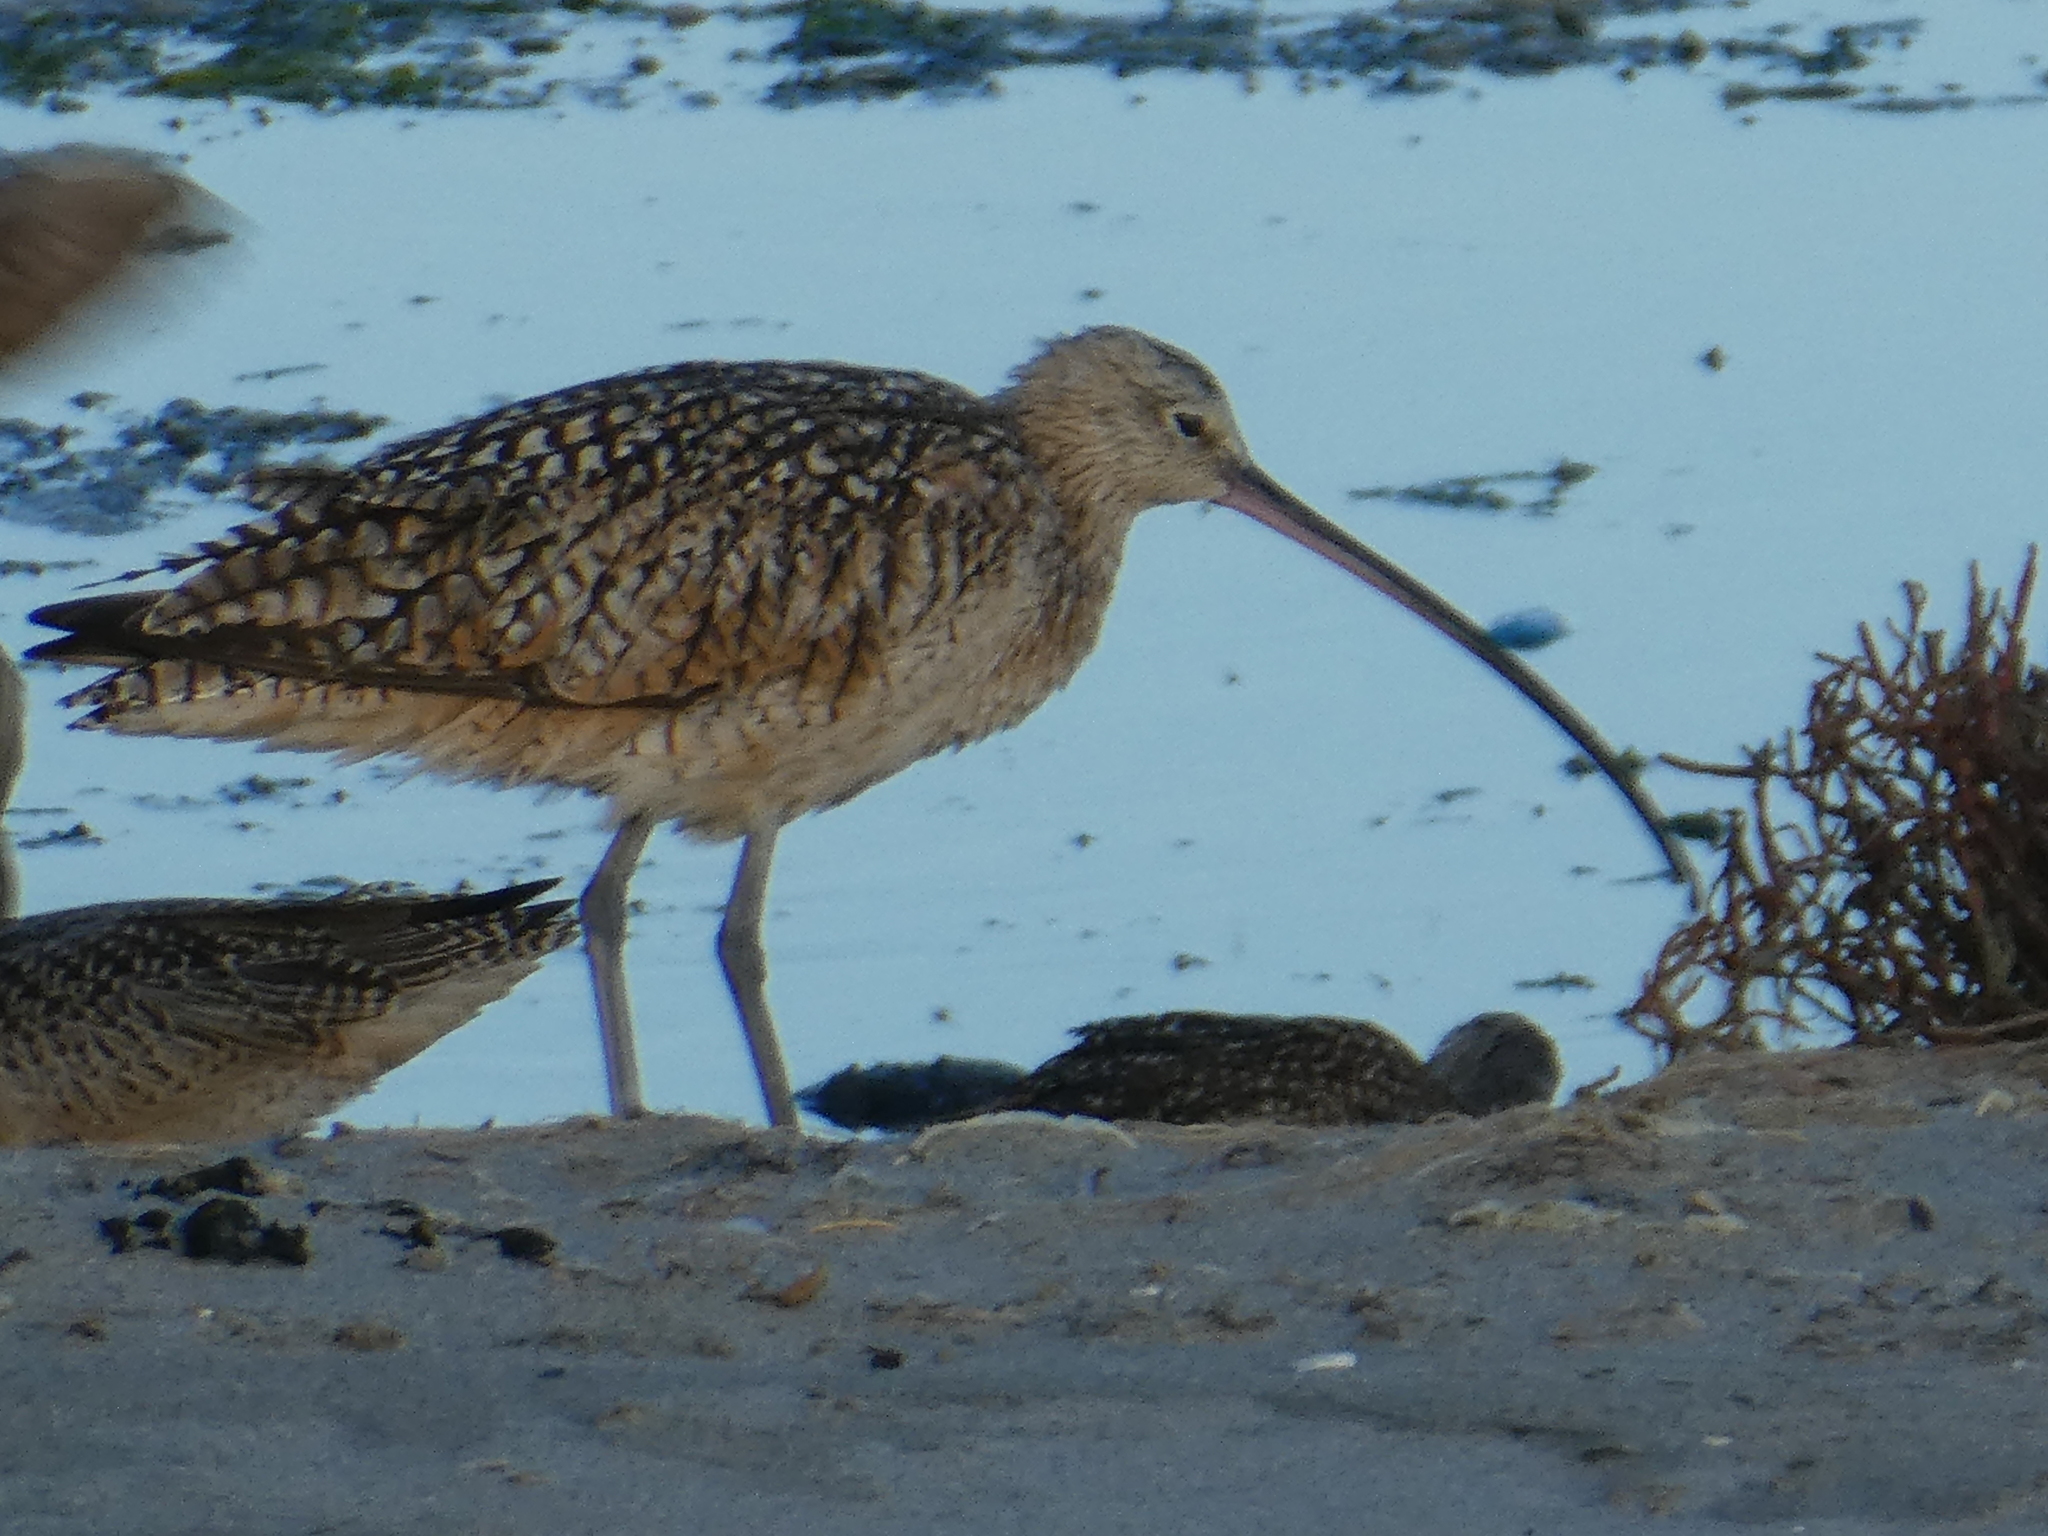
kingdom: Animalia
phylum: Chordata
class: Aves
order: Charadriiformes
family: Scolopacidae
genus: Numenius
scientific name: Numenius americanus
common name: Long-billed curlew
